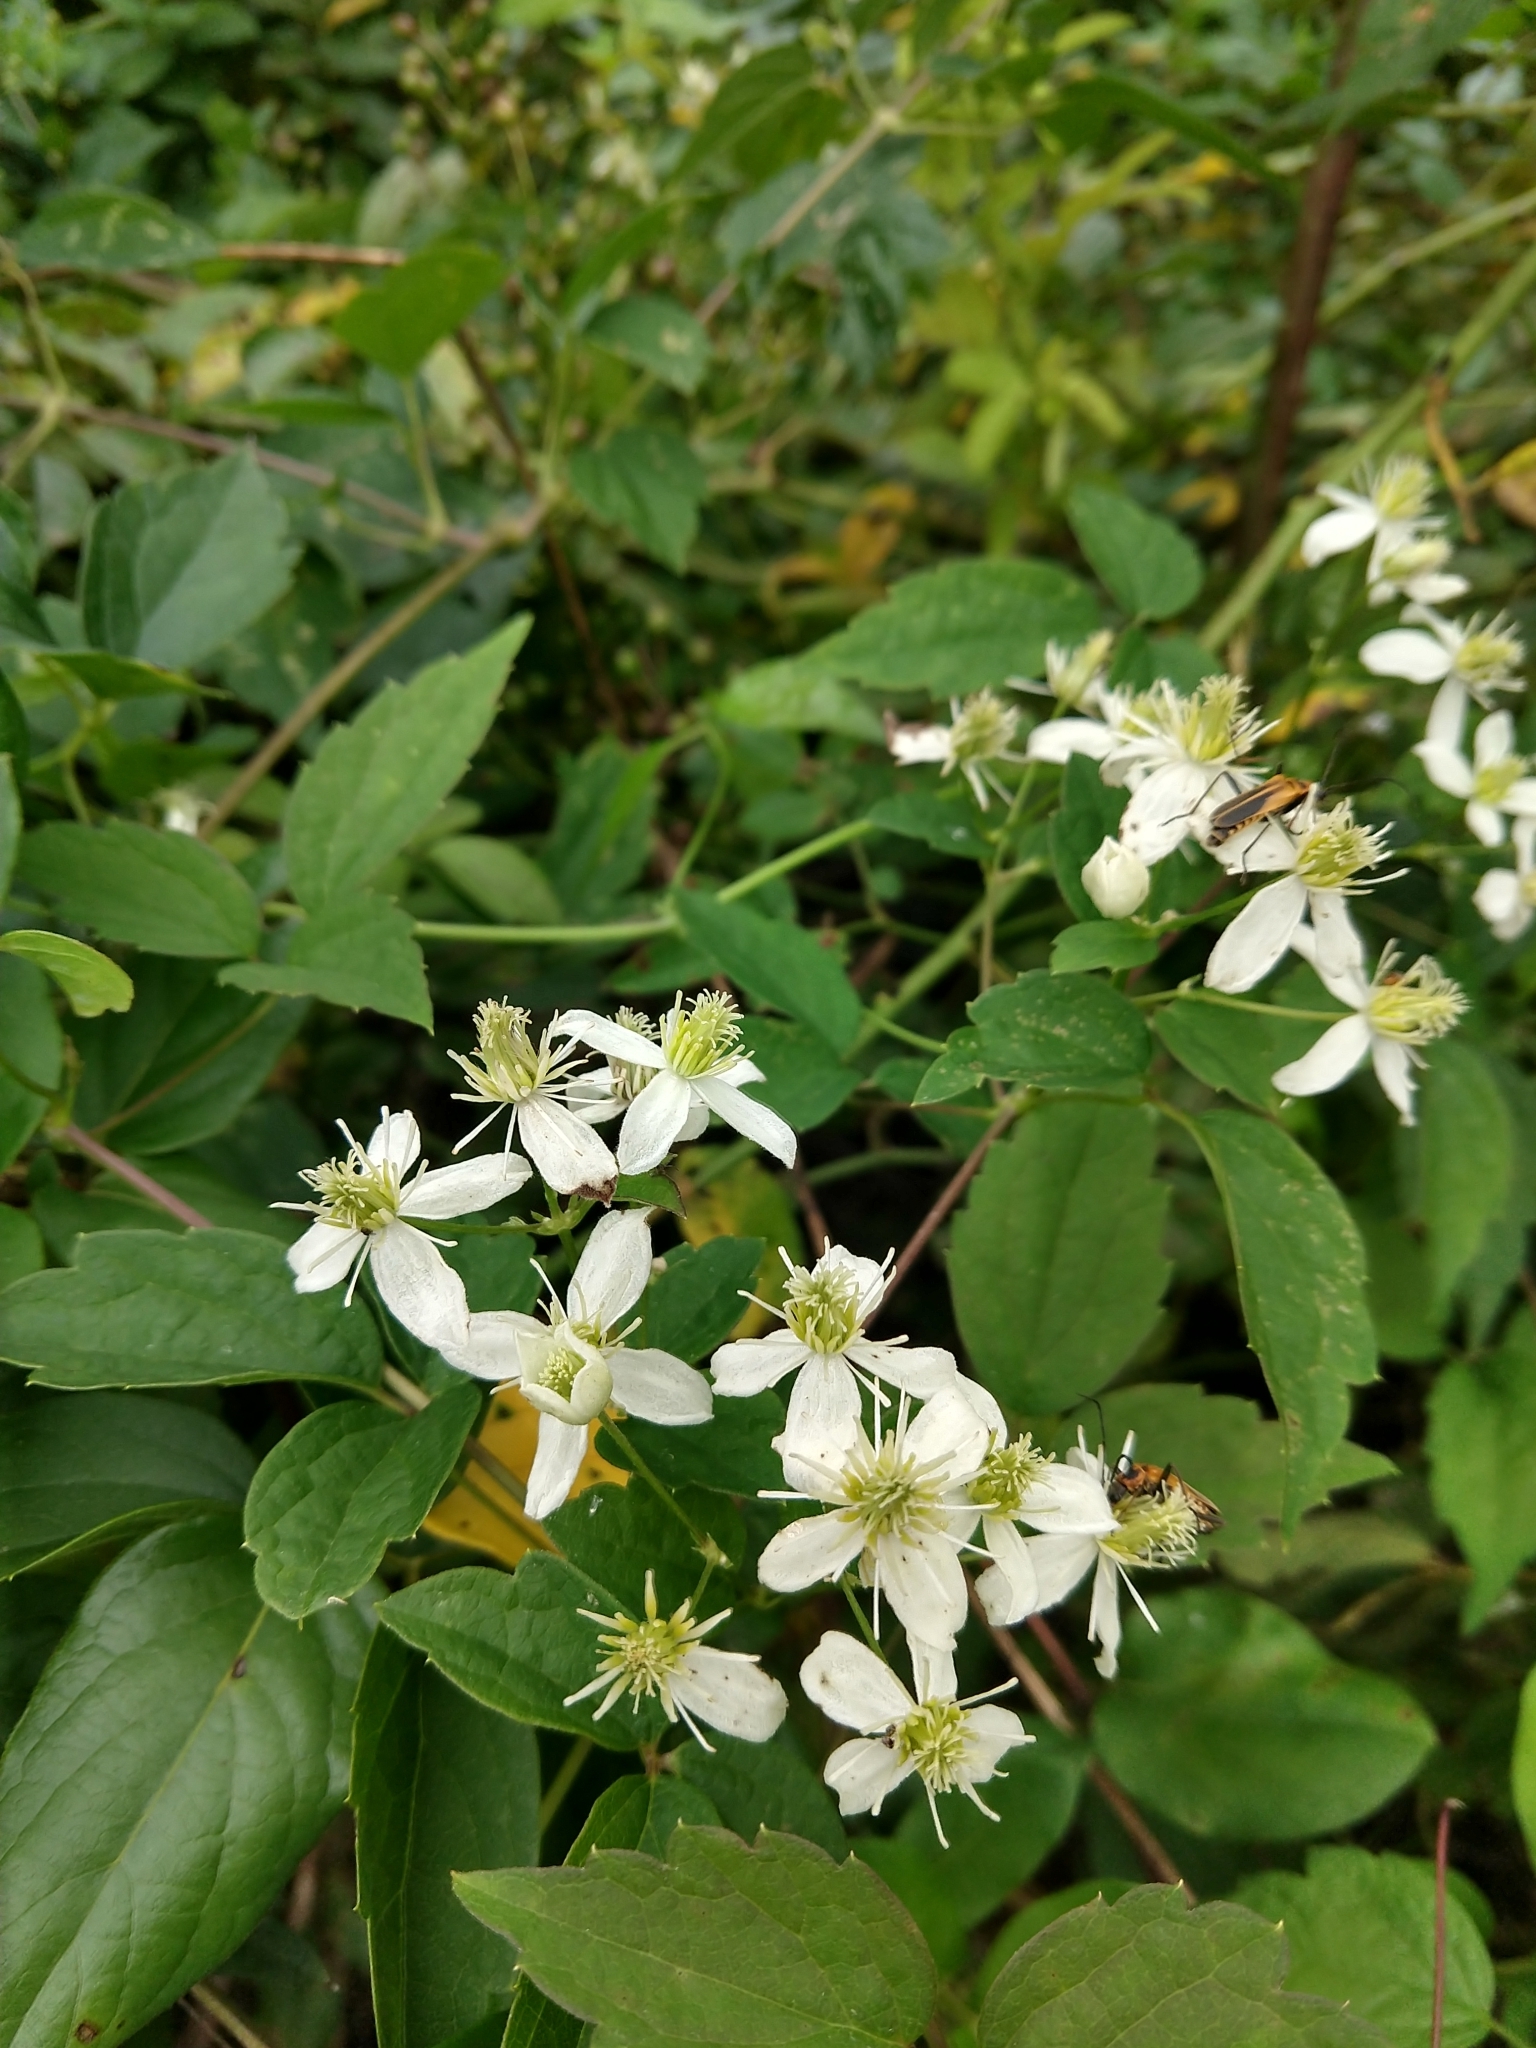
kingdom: Plantae
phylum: Tracheophyta
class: Magnoliopsida
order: Ranunculales
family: Ranunculaceae
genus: Clematis
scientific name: Clematis virginiana
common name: Virgin's-bower
